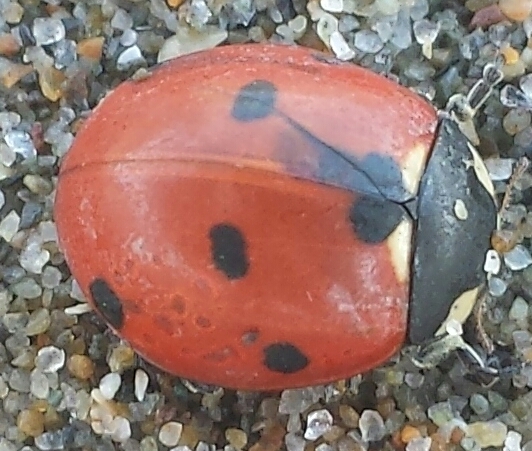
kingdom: Animalia
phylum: Arthropoda
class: Insecta
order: Coleoptera
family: Coccinellidae
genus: Coccinella
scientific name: Coccinella septempunctata
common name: Sevenspotted lady beetle
